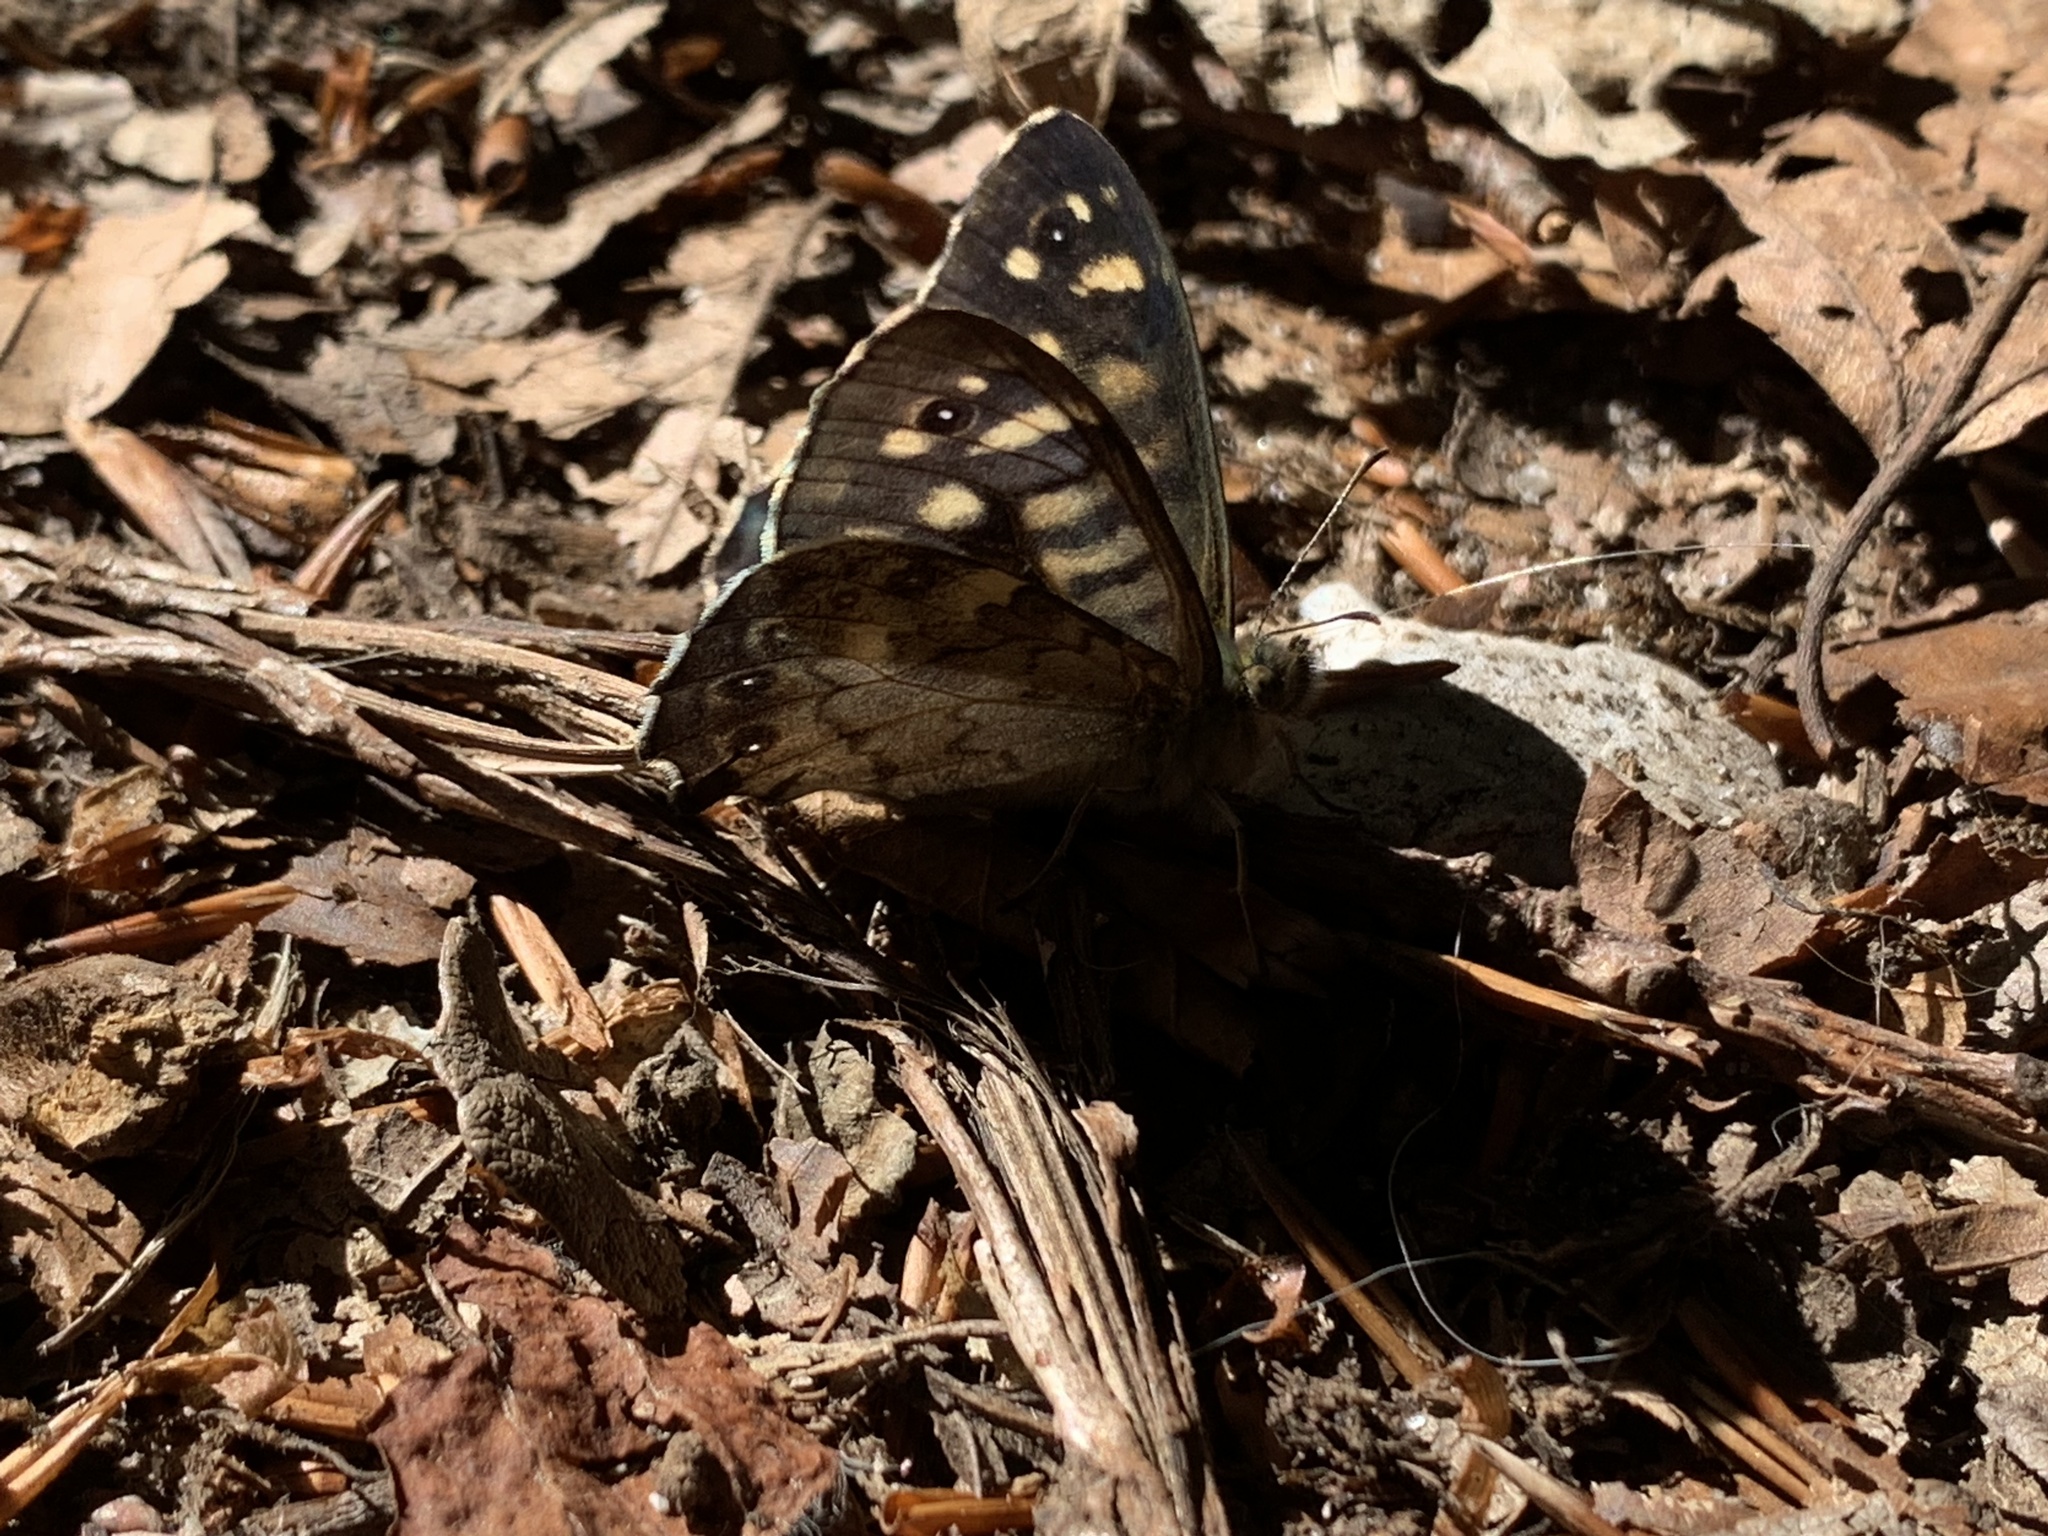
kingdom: Animalia
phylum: Arthropoda
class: Insecta
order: Lepidoptera
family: Nymphalidae
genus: Pararge
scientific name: Pararge aegeria
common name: Speckled wood
